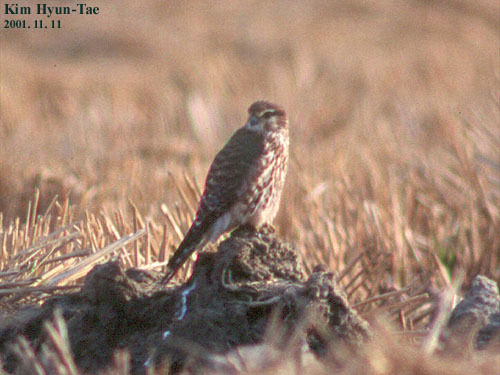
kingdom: Animalia
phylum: Chordata
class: Aves
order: Falconiformes
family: Falconidae
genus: Falco
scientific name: Falco columbarius
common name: Merlin
